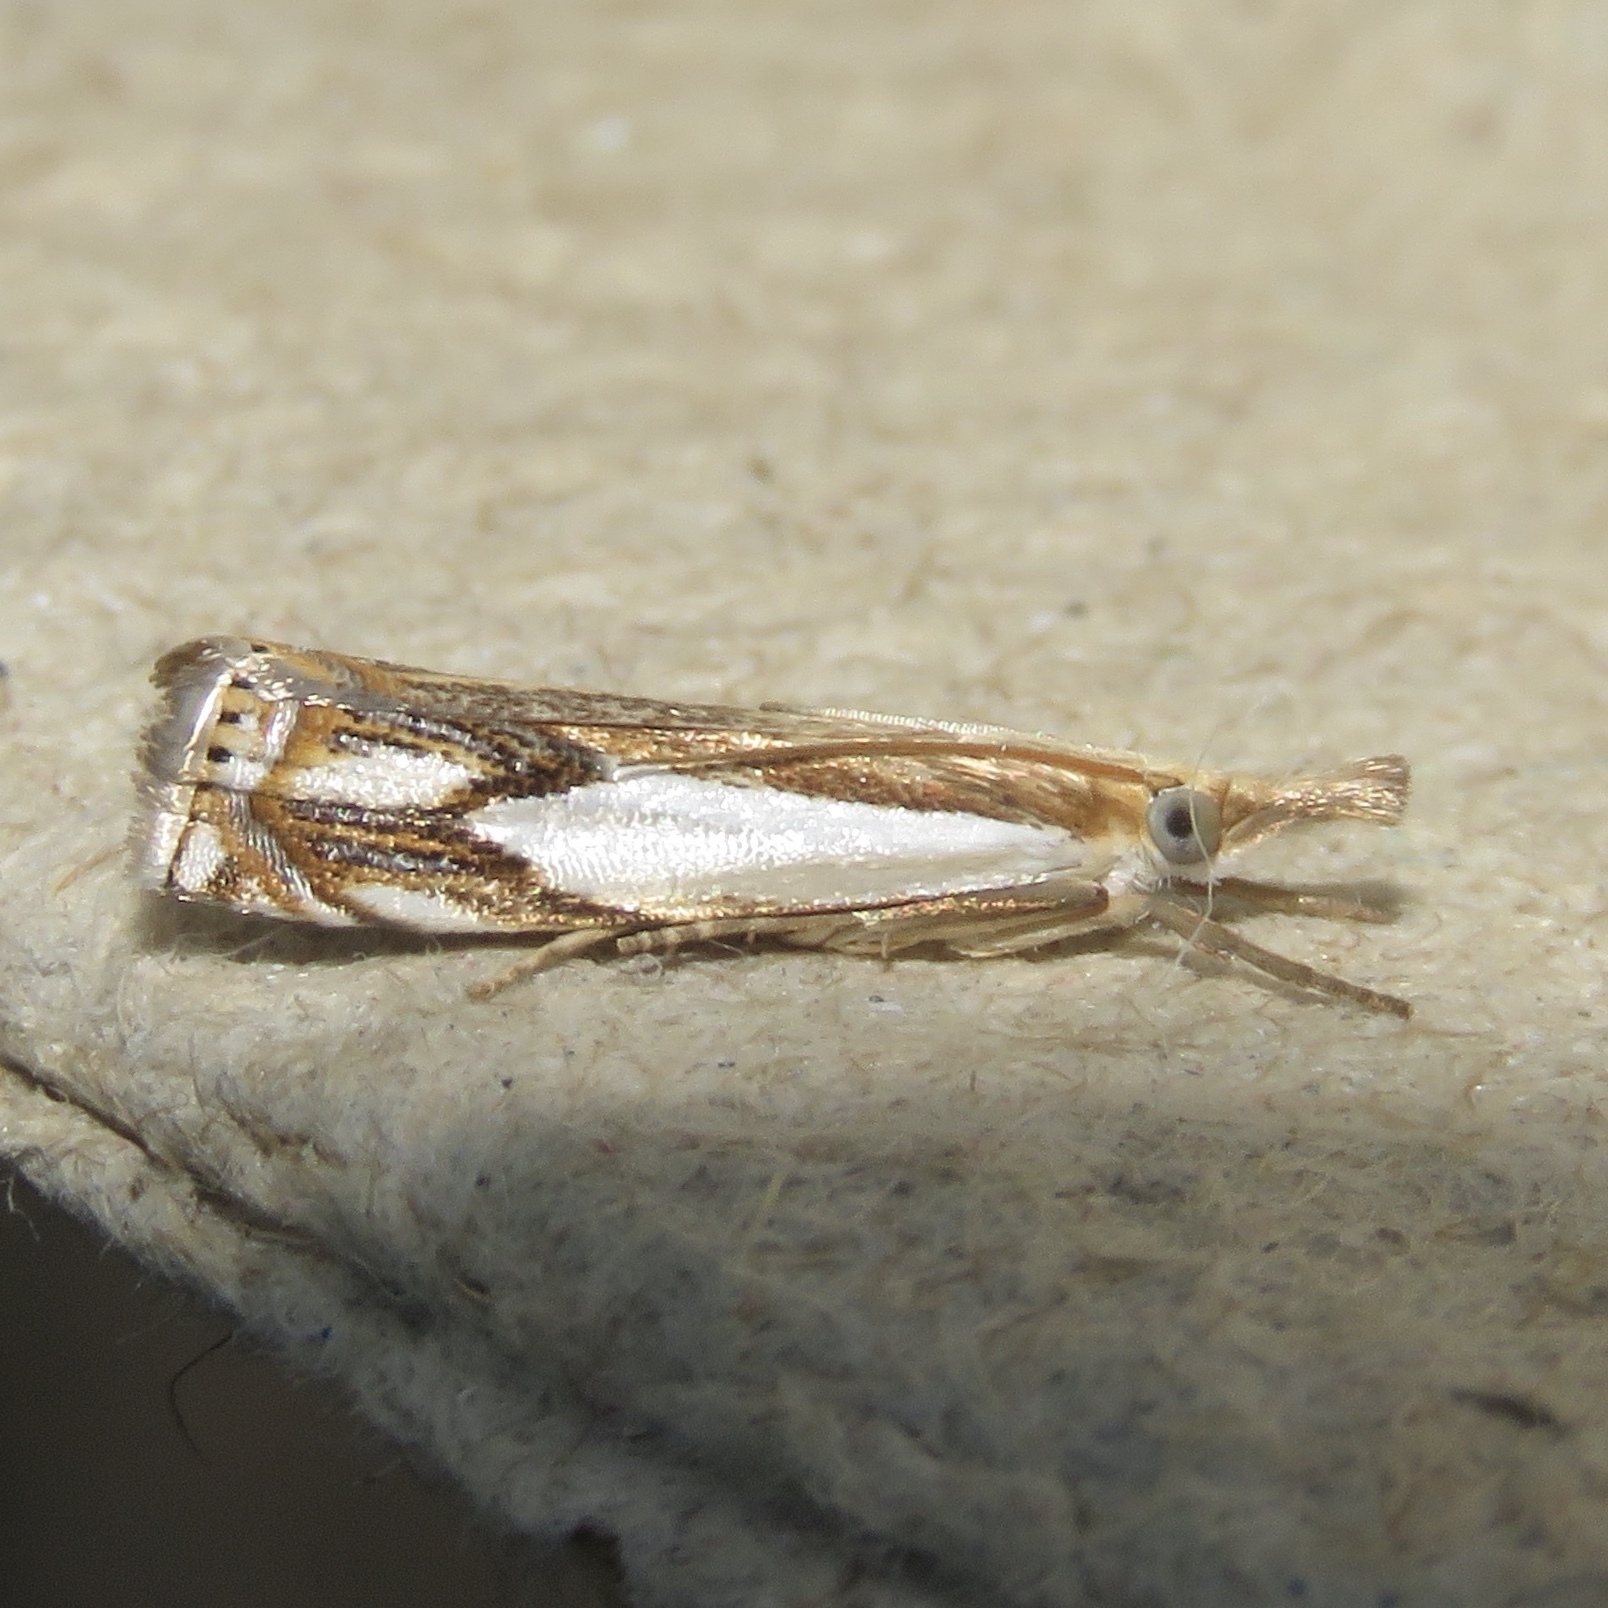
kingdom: Animalia
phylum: Arthropoda
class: Insecta
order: Lepidoptera
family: Crambidae
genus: Crambus
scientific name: Crambus agitatellus
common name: Double-banded grass-veneer
